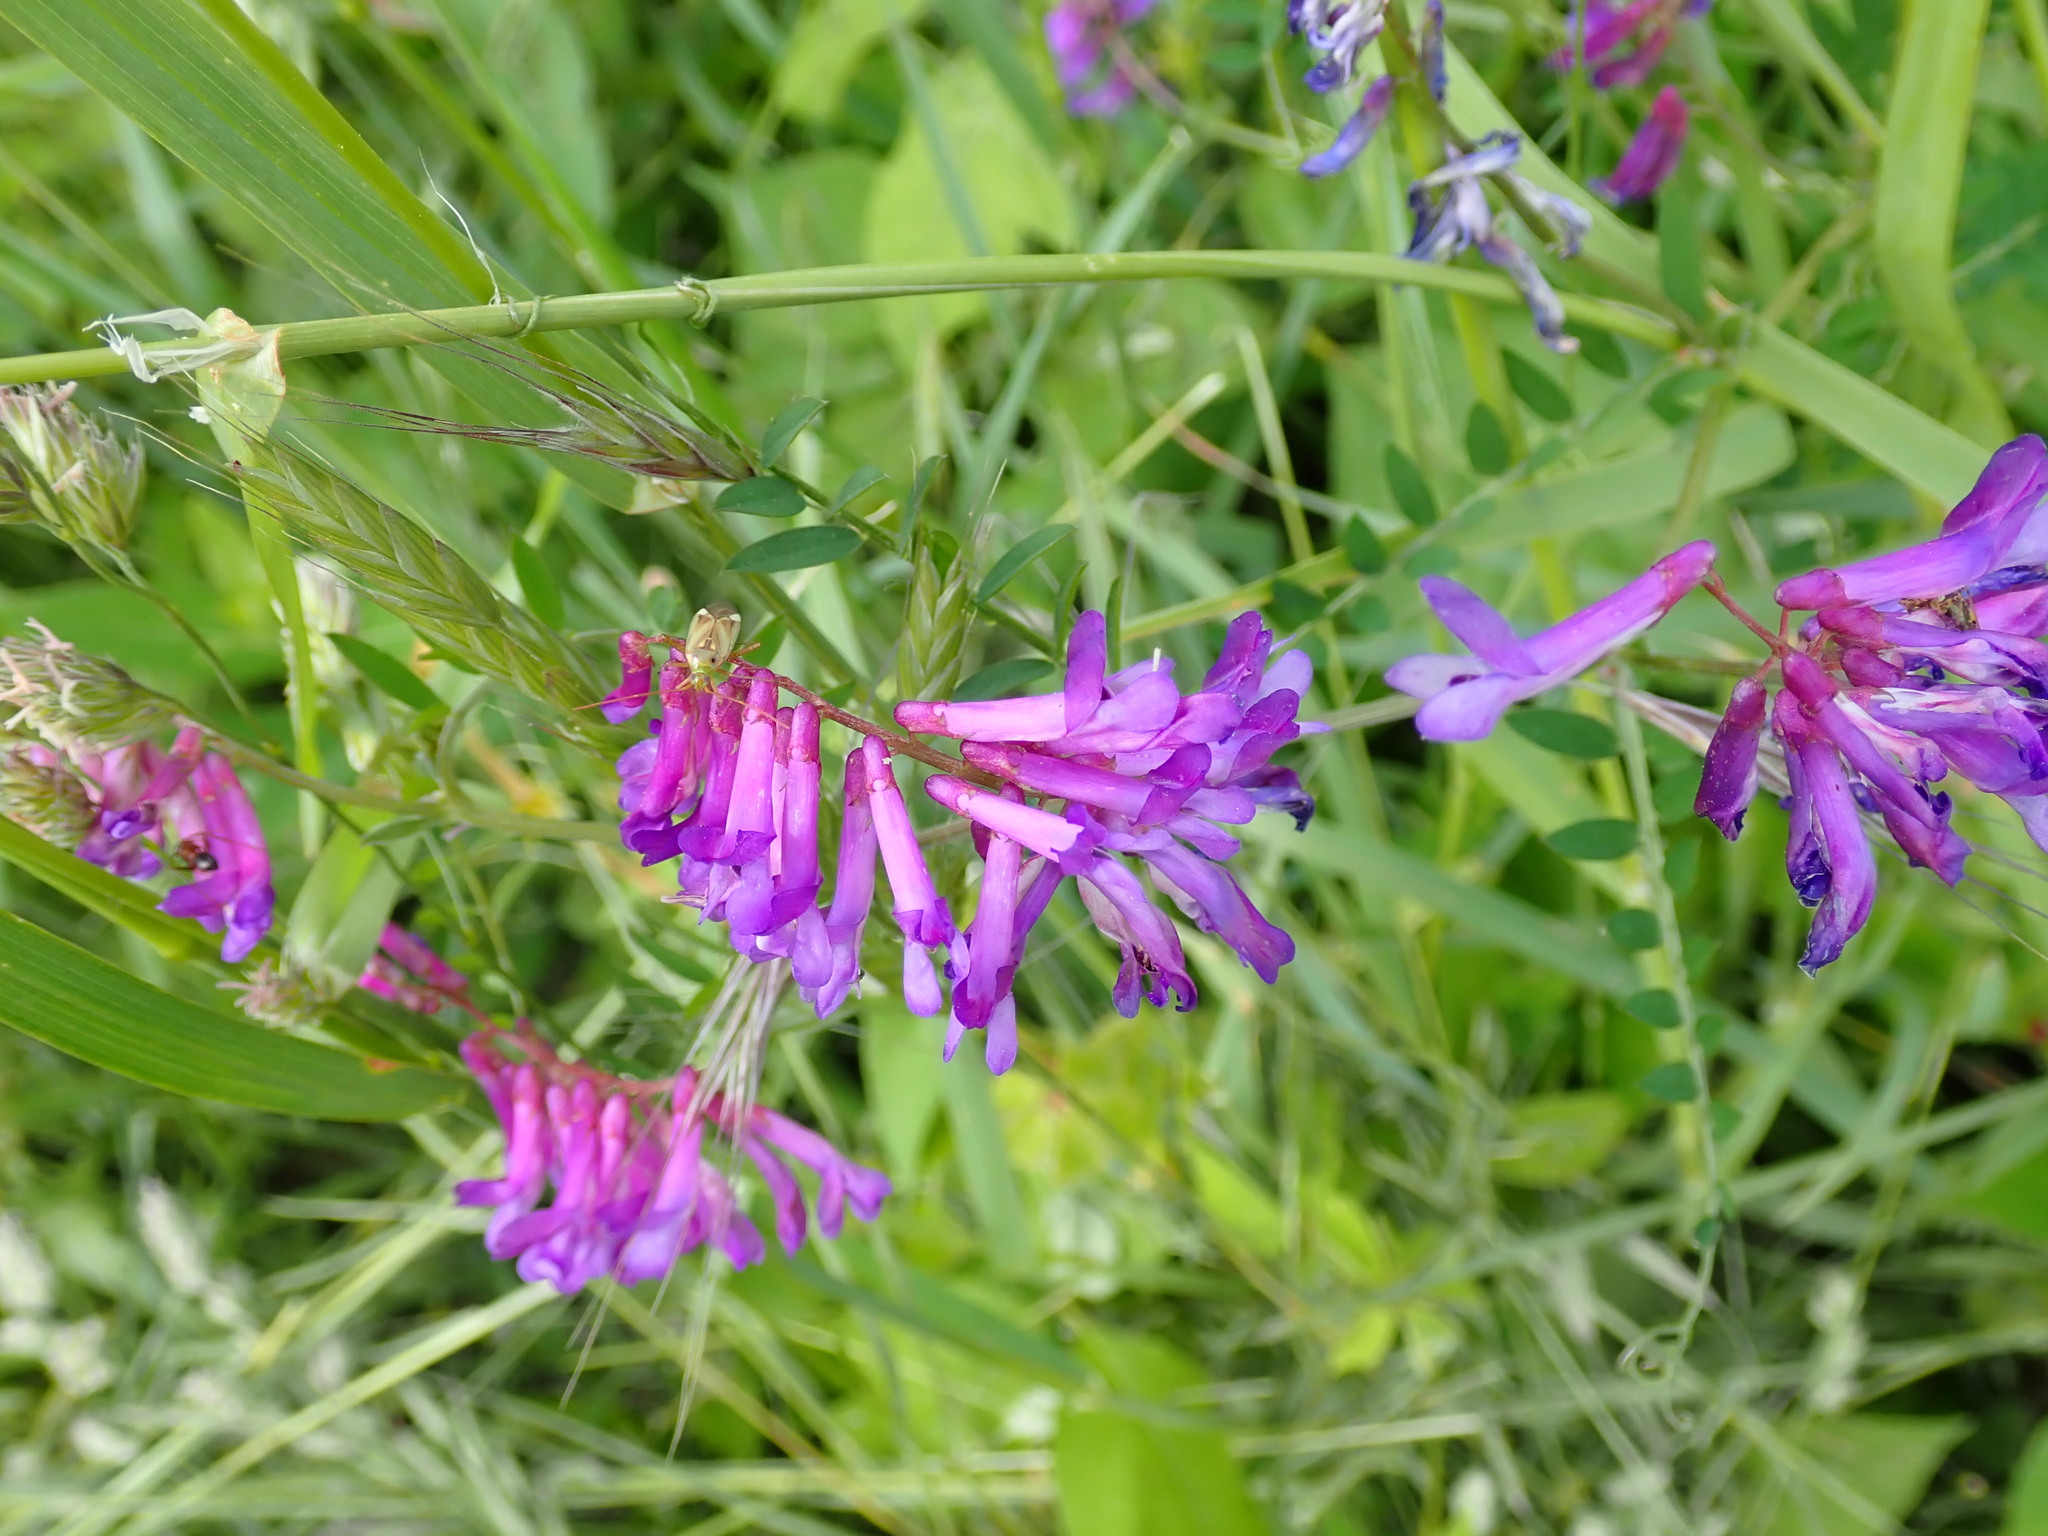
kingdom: Plantae
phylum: Tracheophyta
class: Magnoliopsida
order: Fabales
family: Fabaceae
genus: Vicia
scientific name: Vicia villosa
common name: Fodder vetch
